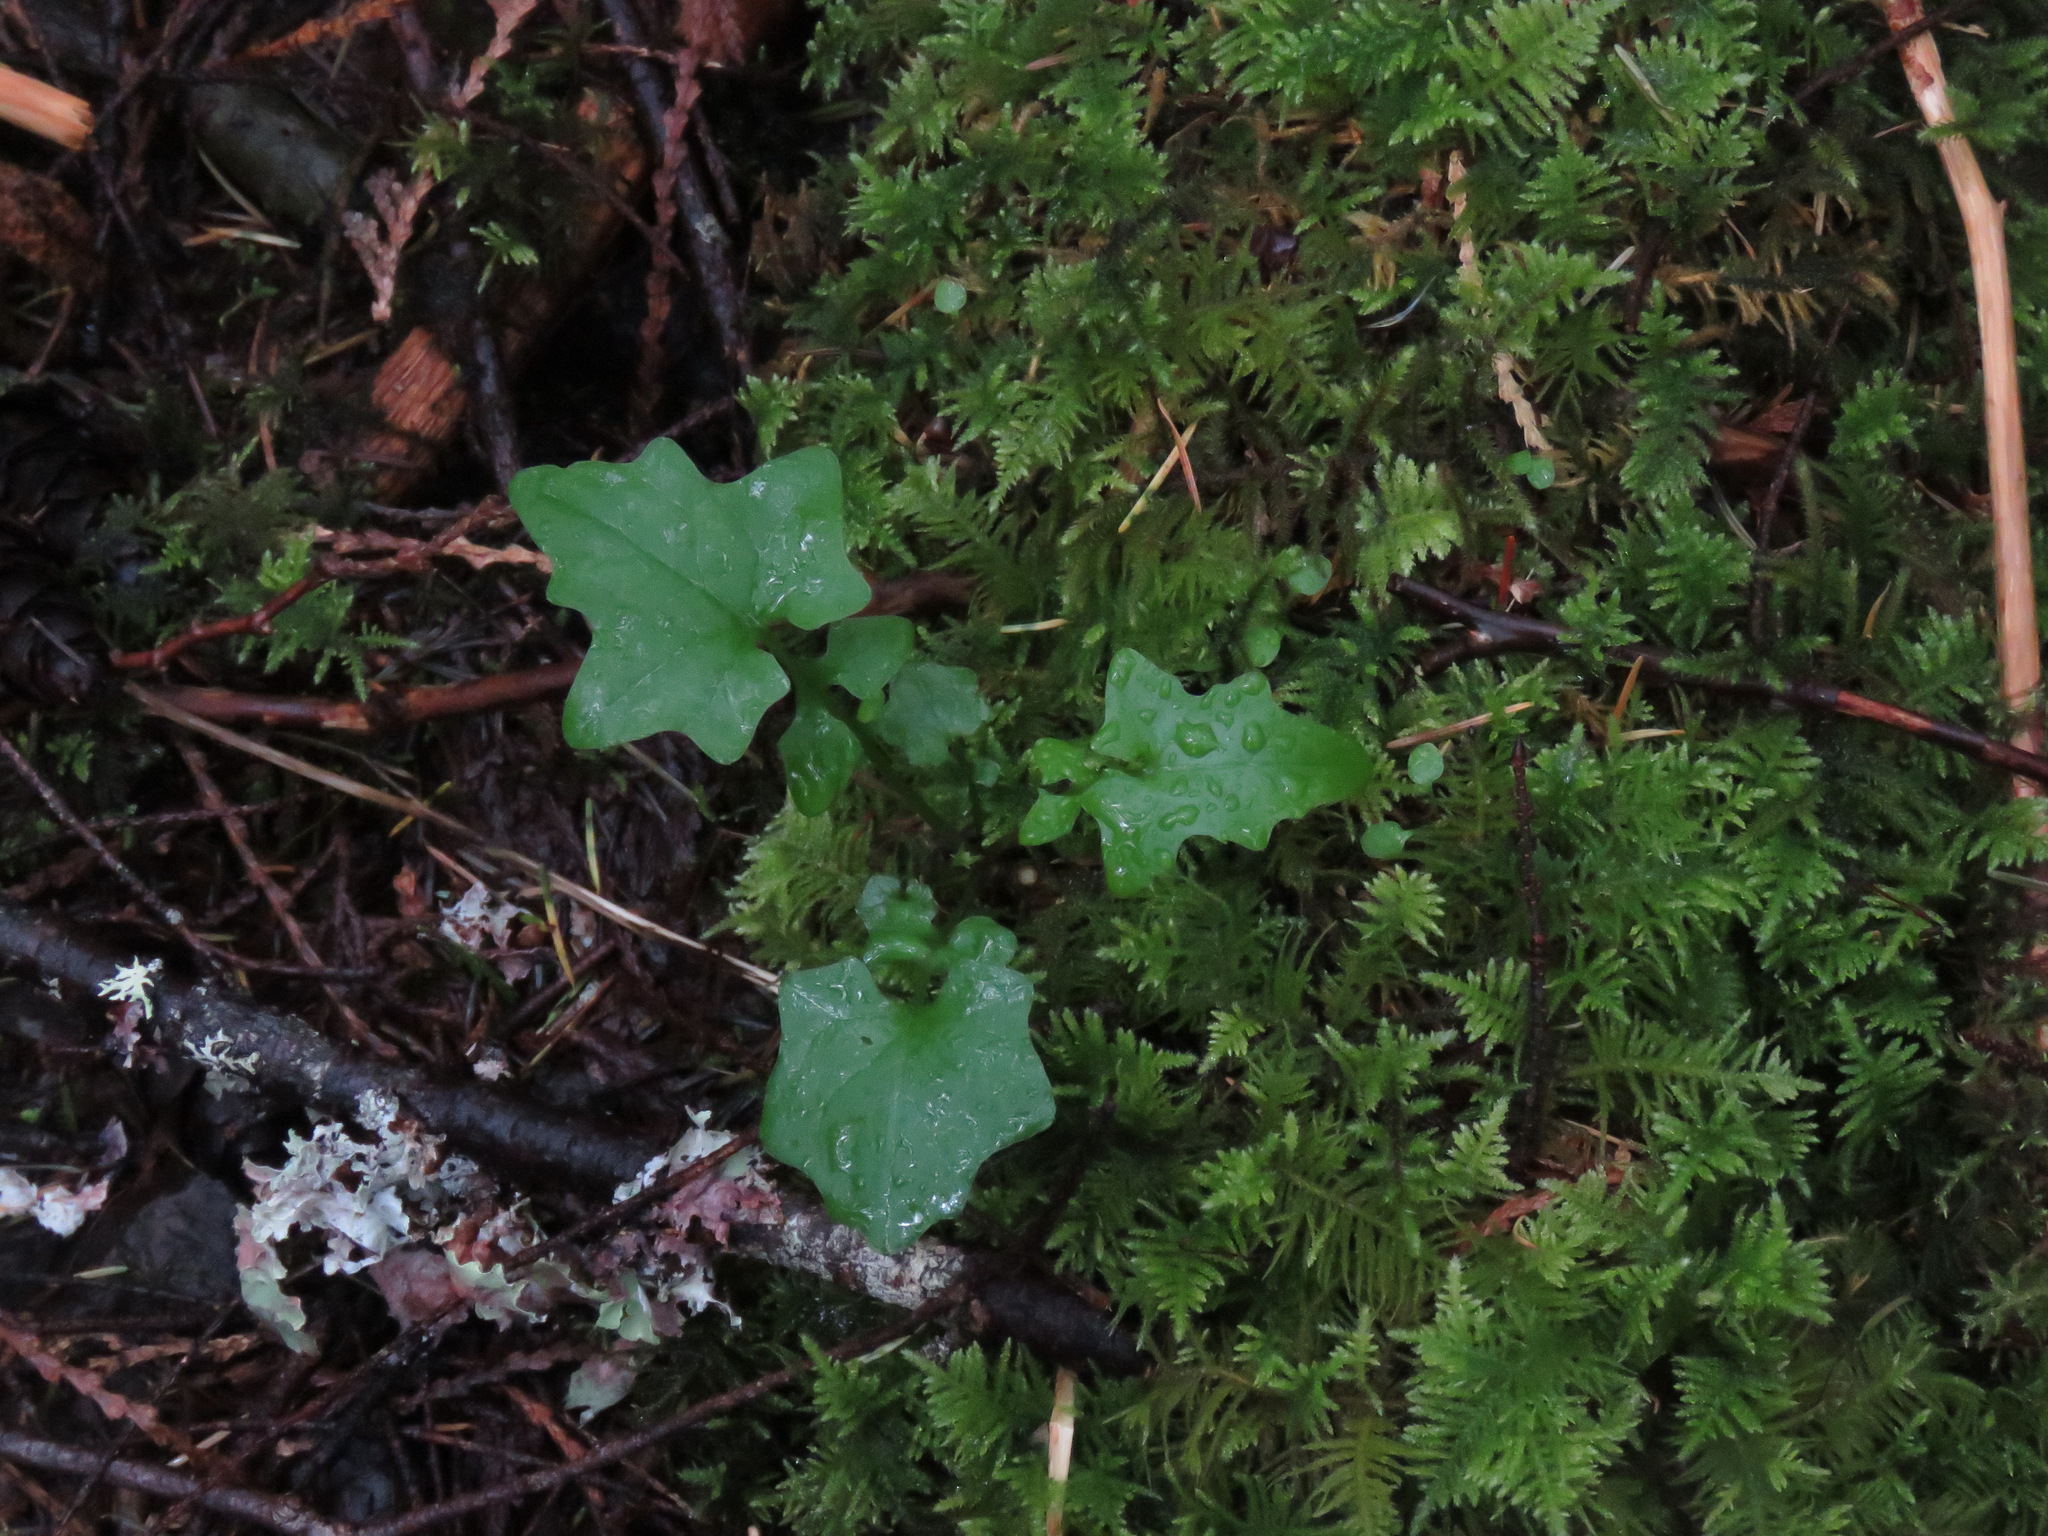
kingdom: Plantae
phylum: Tracheophyta
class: Magnoliopsida
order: Asterales
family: Asteraceae
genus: Mycelis
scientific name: Mycelis muralis
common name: Wall lettuce
